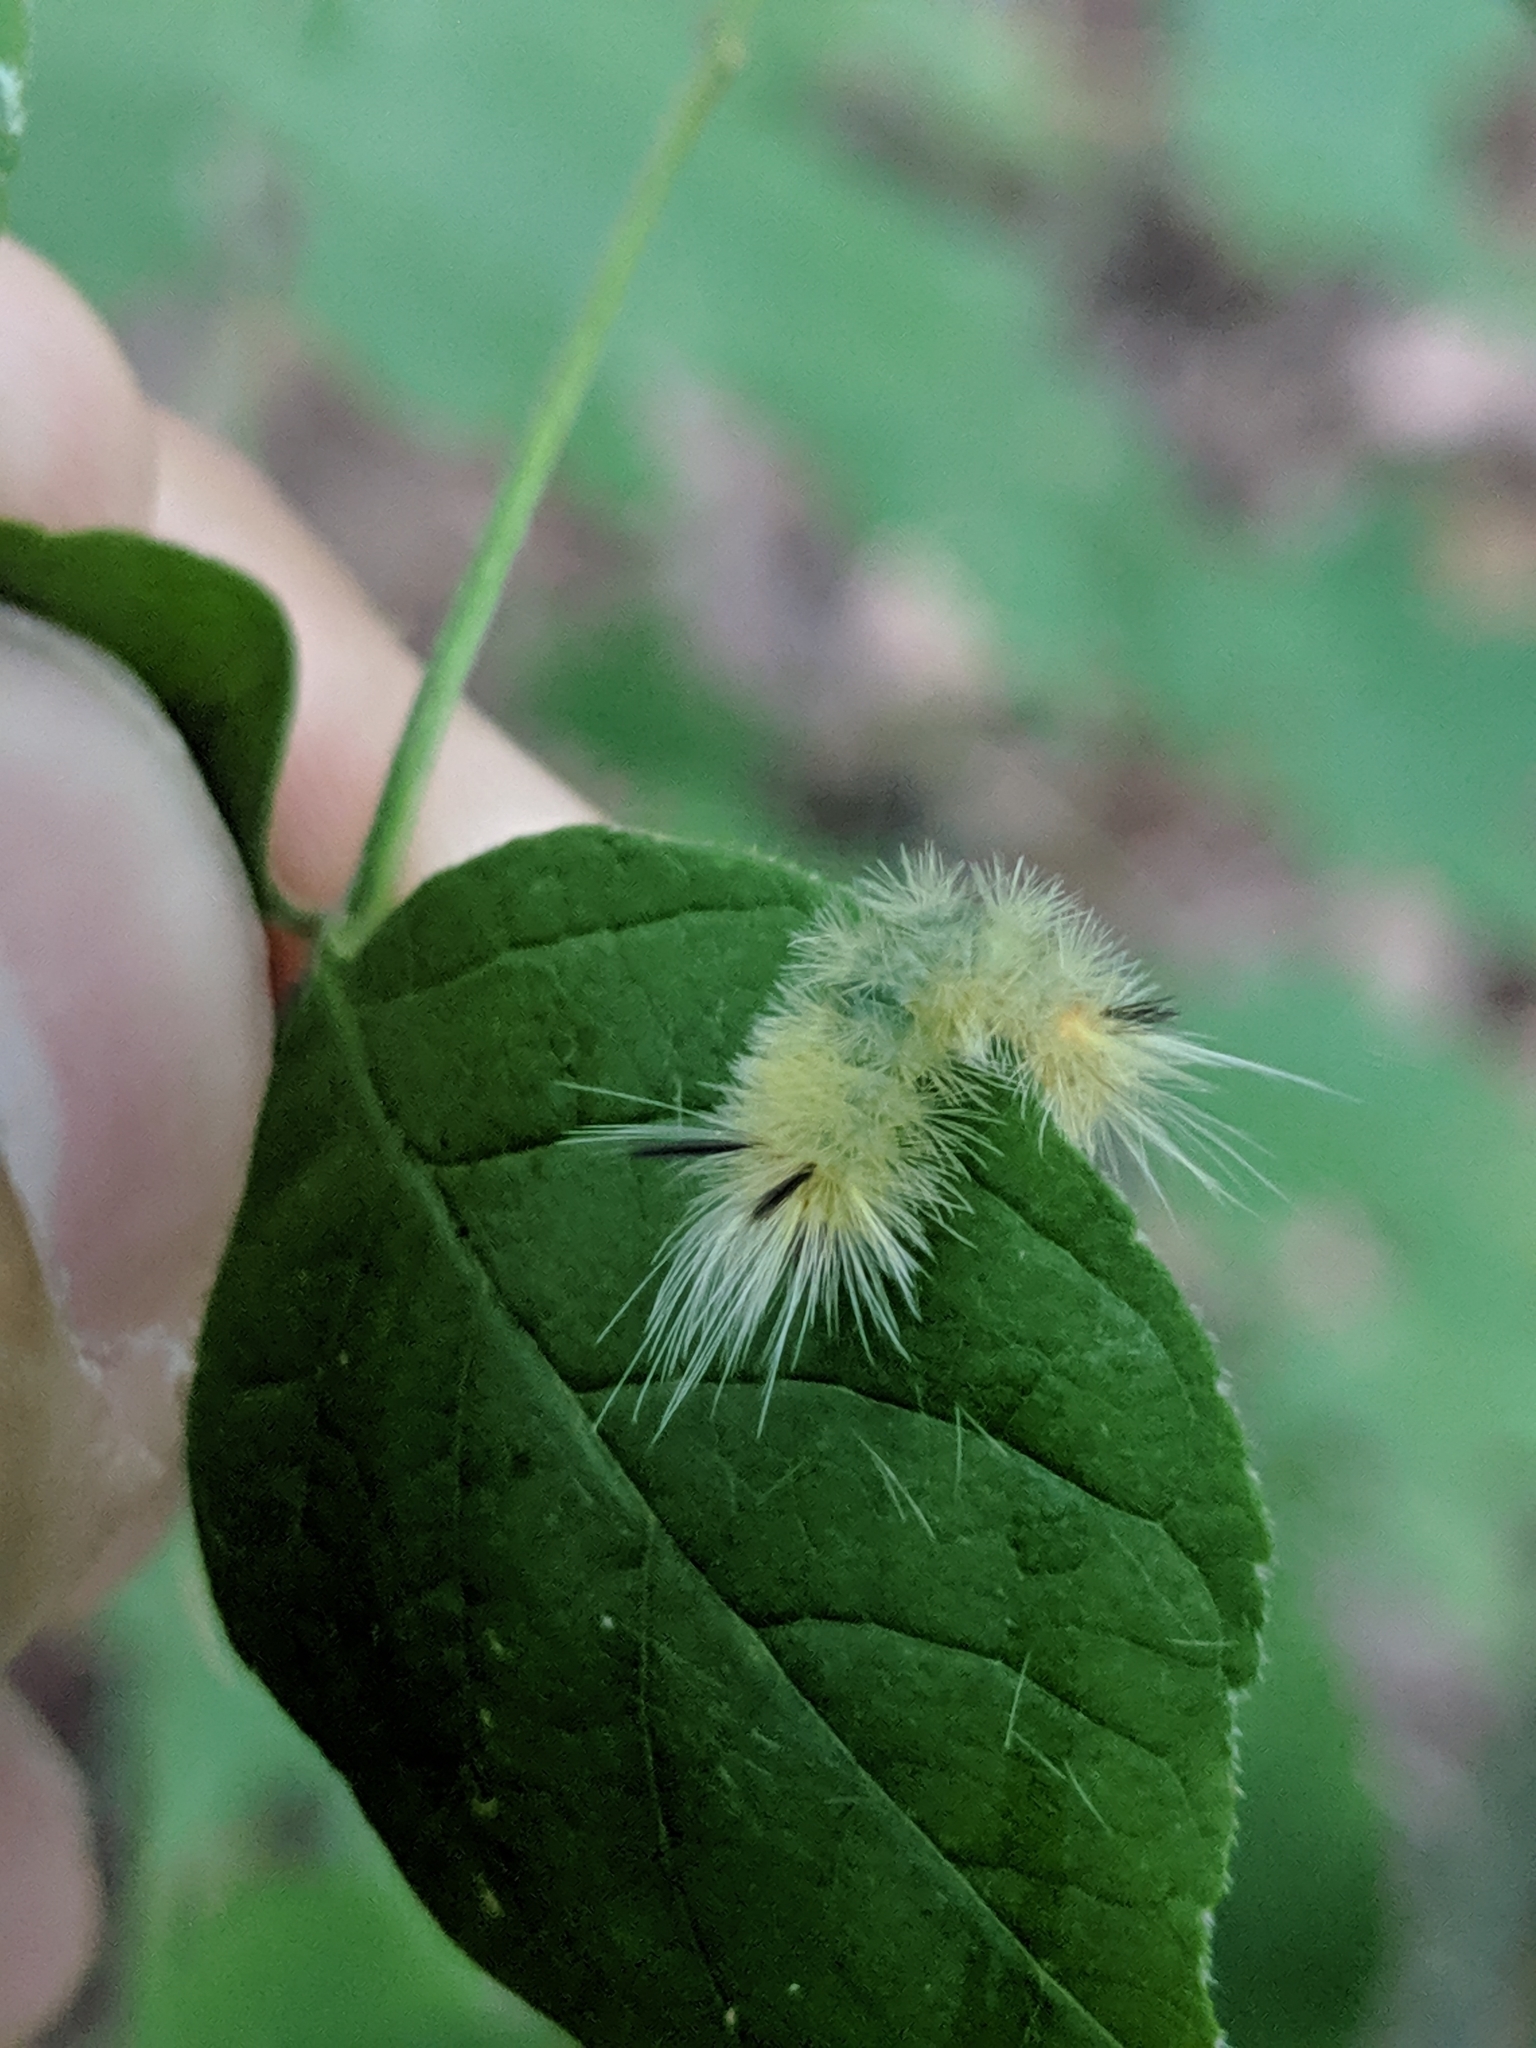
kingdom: Animalia
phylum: Arthropoda
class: Insecta
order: Lepidoptera
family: Erebidae
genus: Halysidota
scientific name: Halysidota tessellaris
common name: Banded tussock moth
